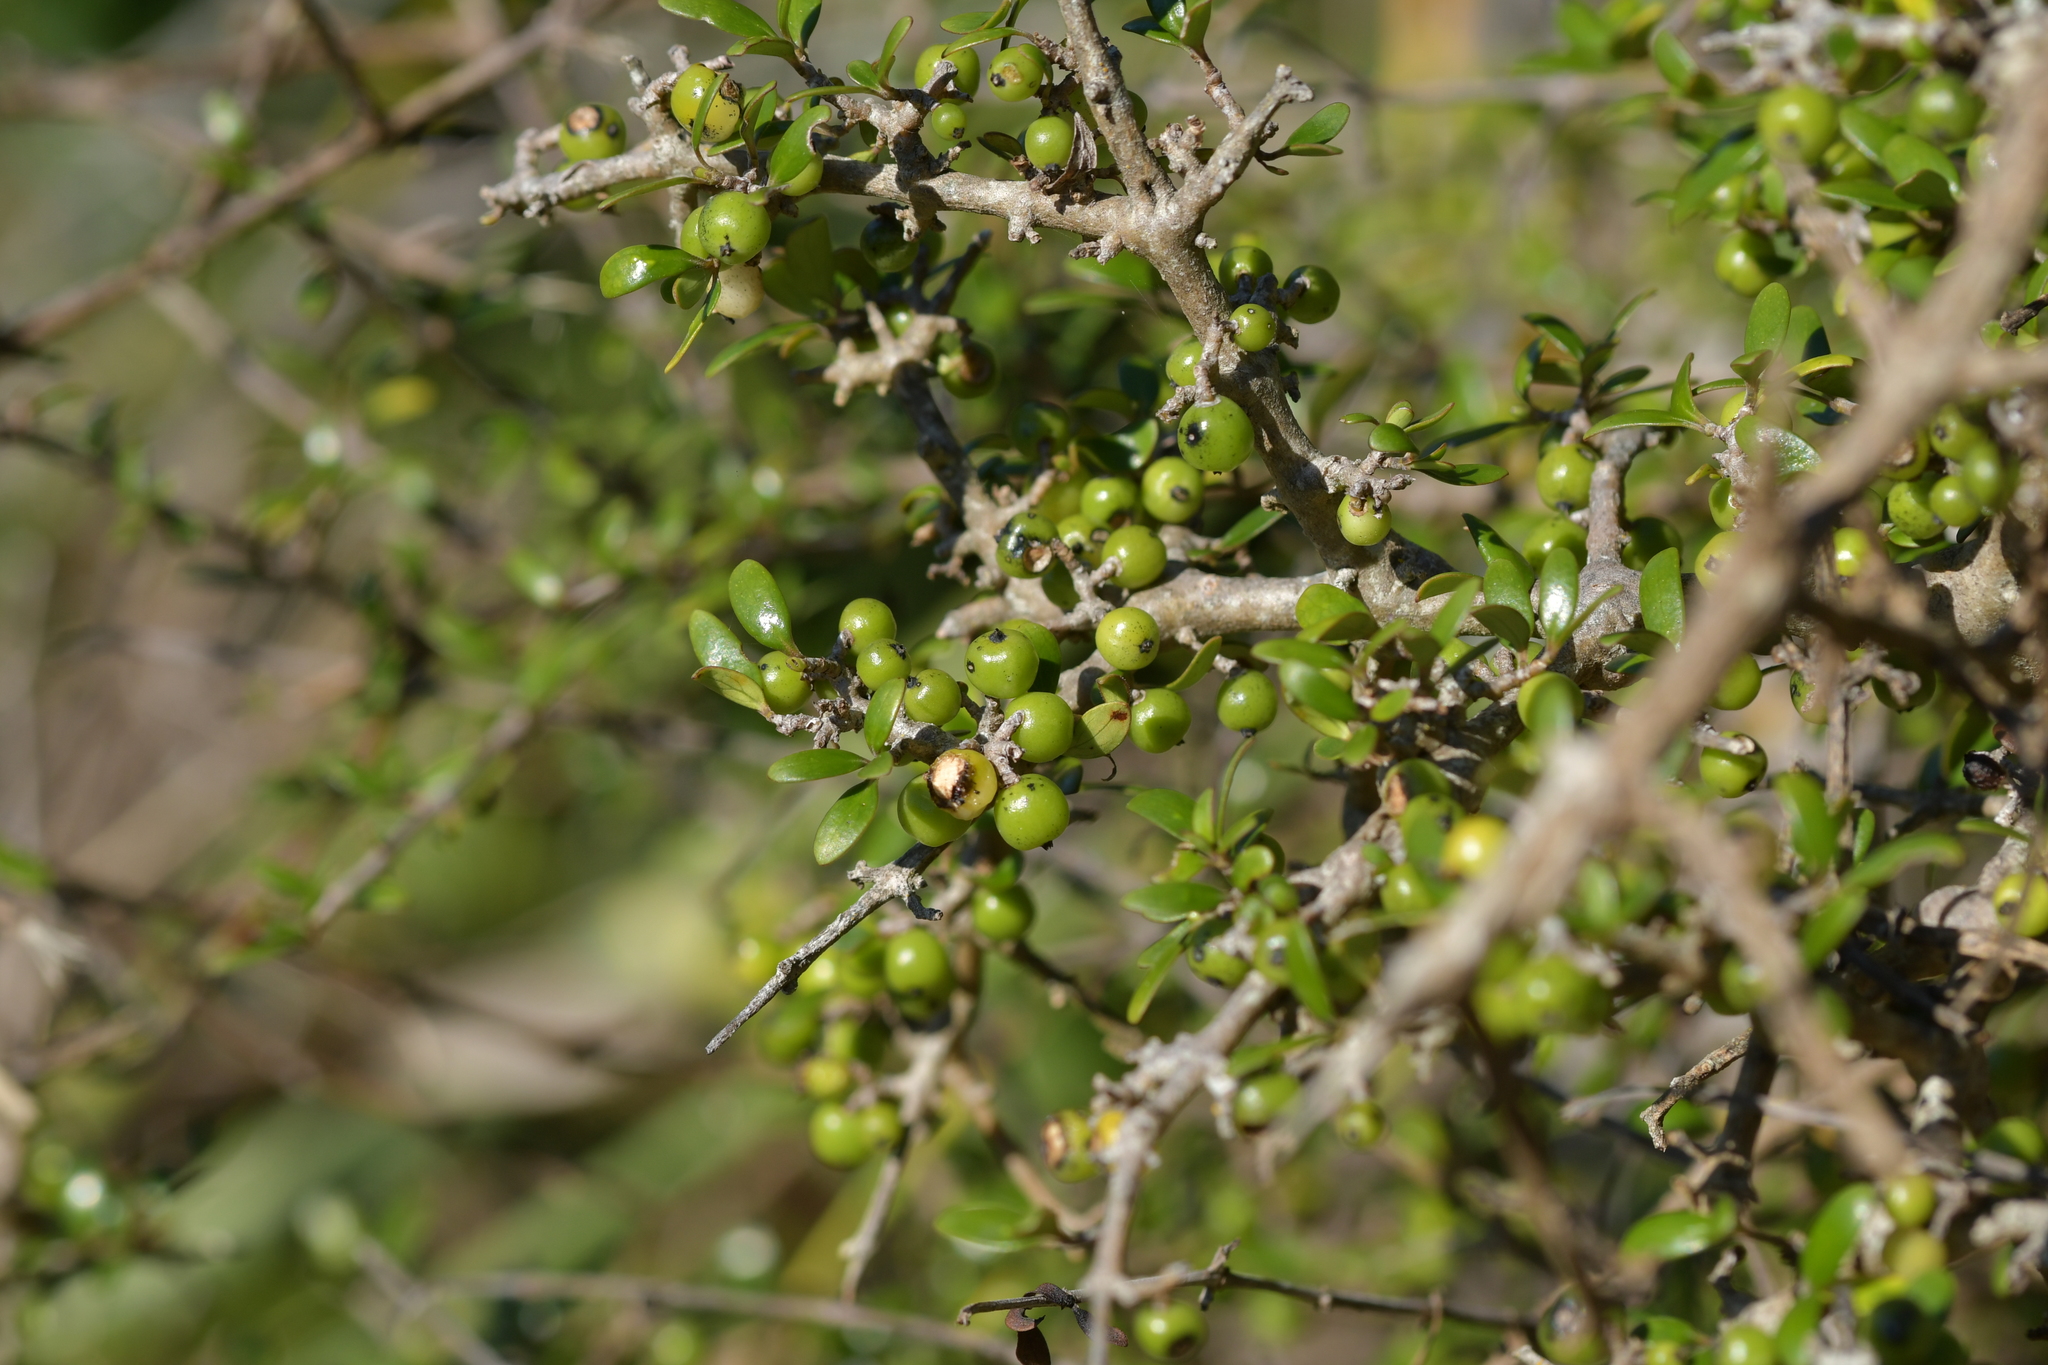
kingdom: Plantae
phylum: Tracheophyta
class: Magnoliopsida
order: Gentianales
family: Rubiaceae
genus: Coprosma
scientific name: Coprosma propinqua
